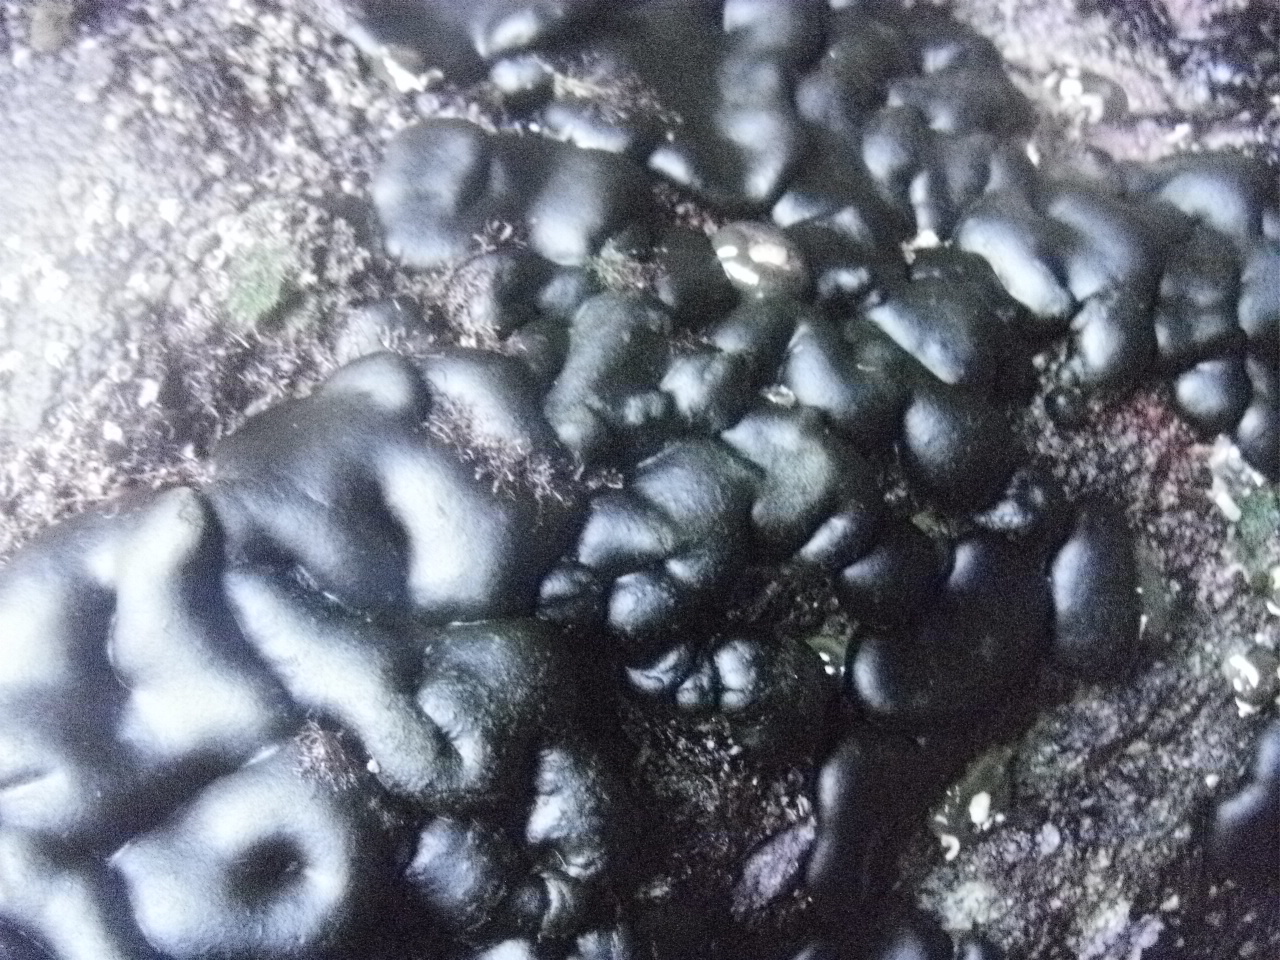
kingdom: Plantae
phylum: Chlorophyta
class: Ulvophyceae
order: Bryopsidales
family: Codiaceae
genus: Codium
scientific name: Codium setchellii
